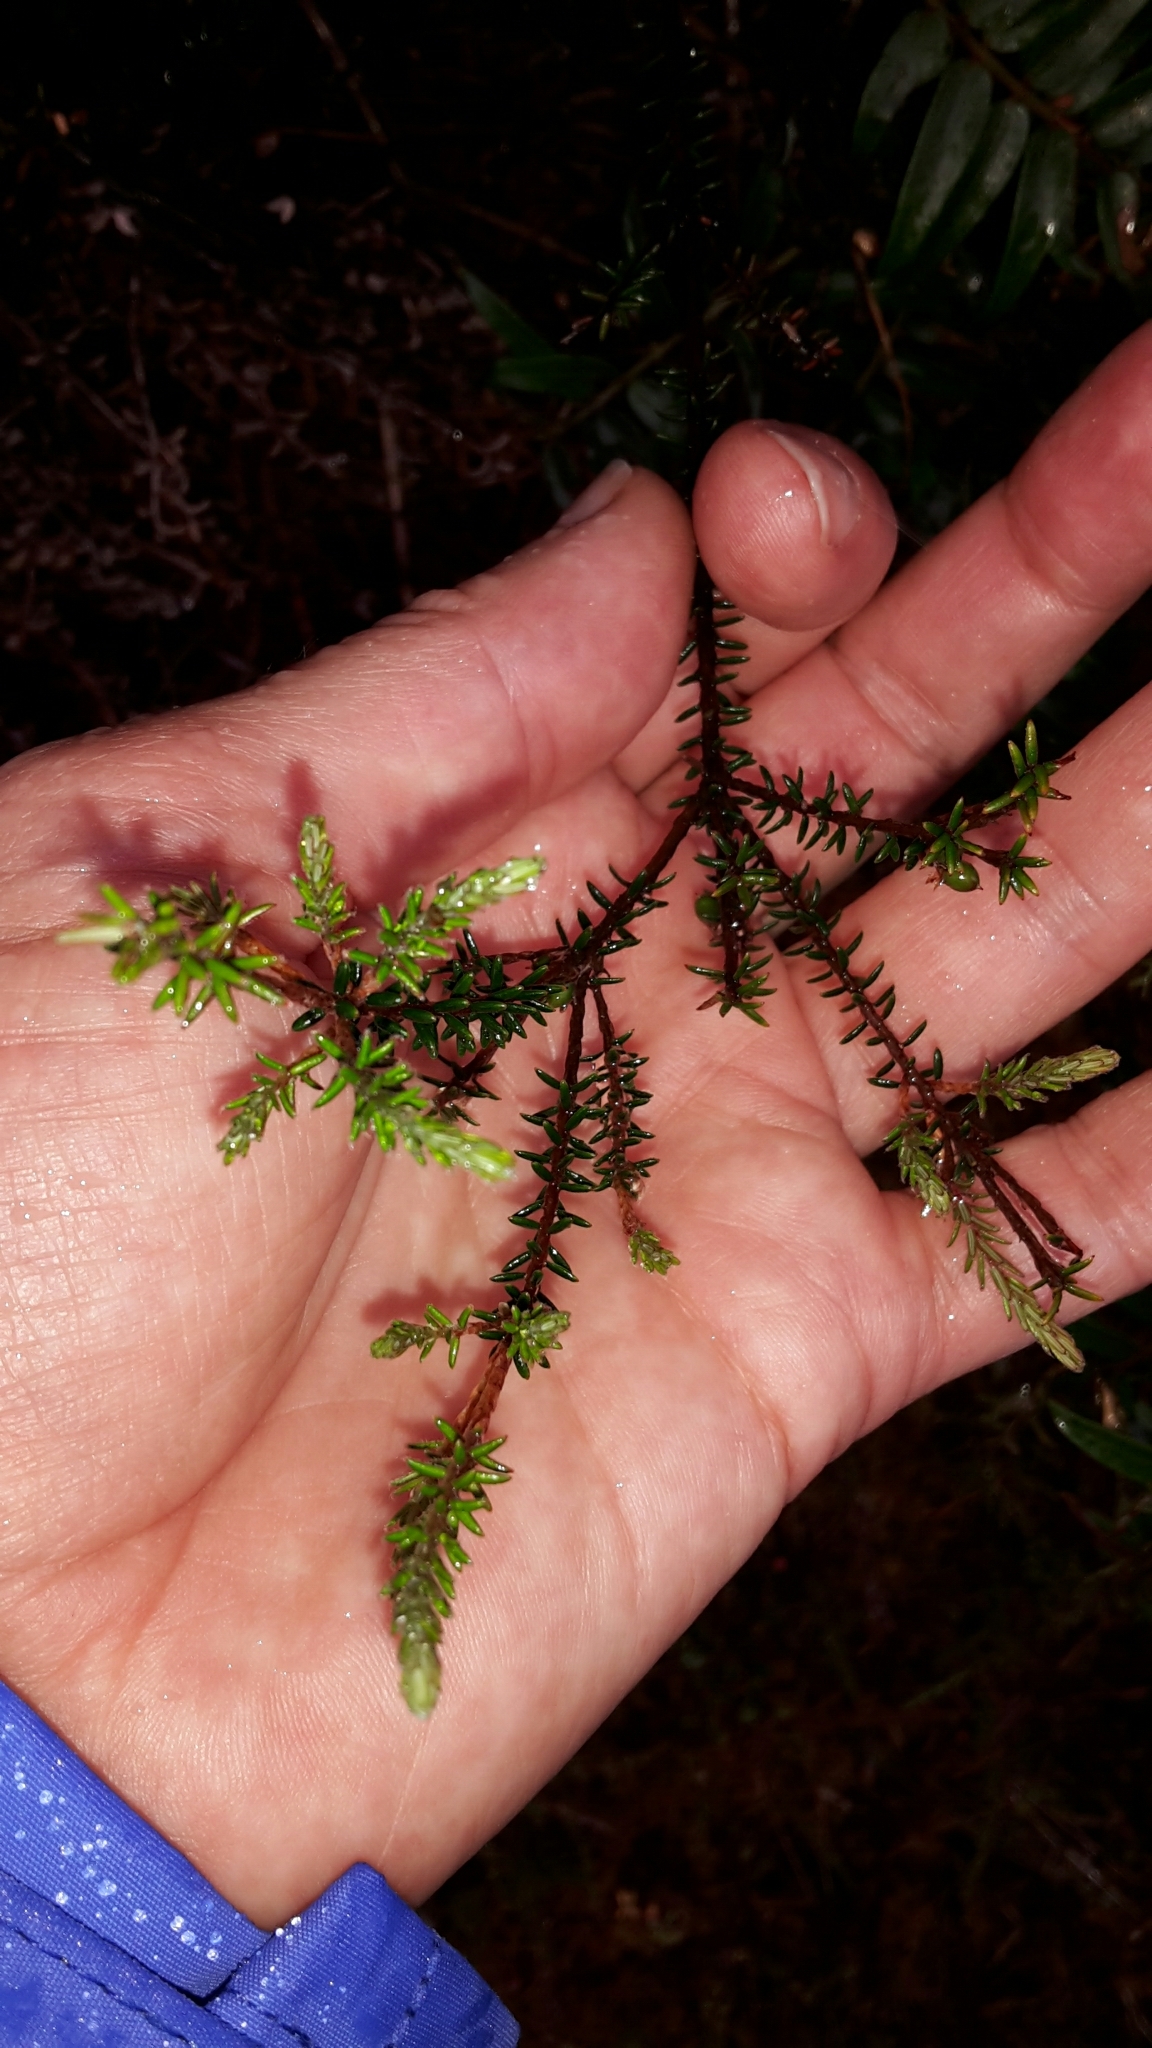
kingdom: Plantae
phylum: Tracheophyta
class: Magnoliopsida
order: Ericales
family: Ericaceae
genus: Androstoma
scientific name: Androstoma empetrifolia
